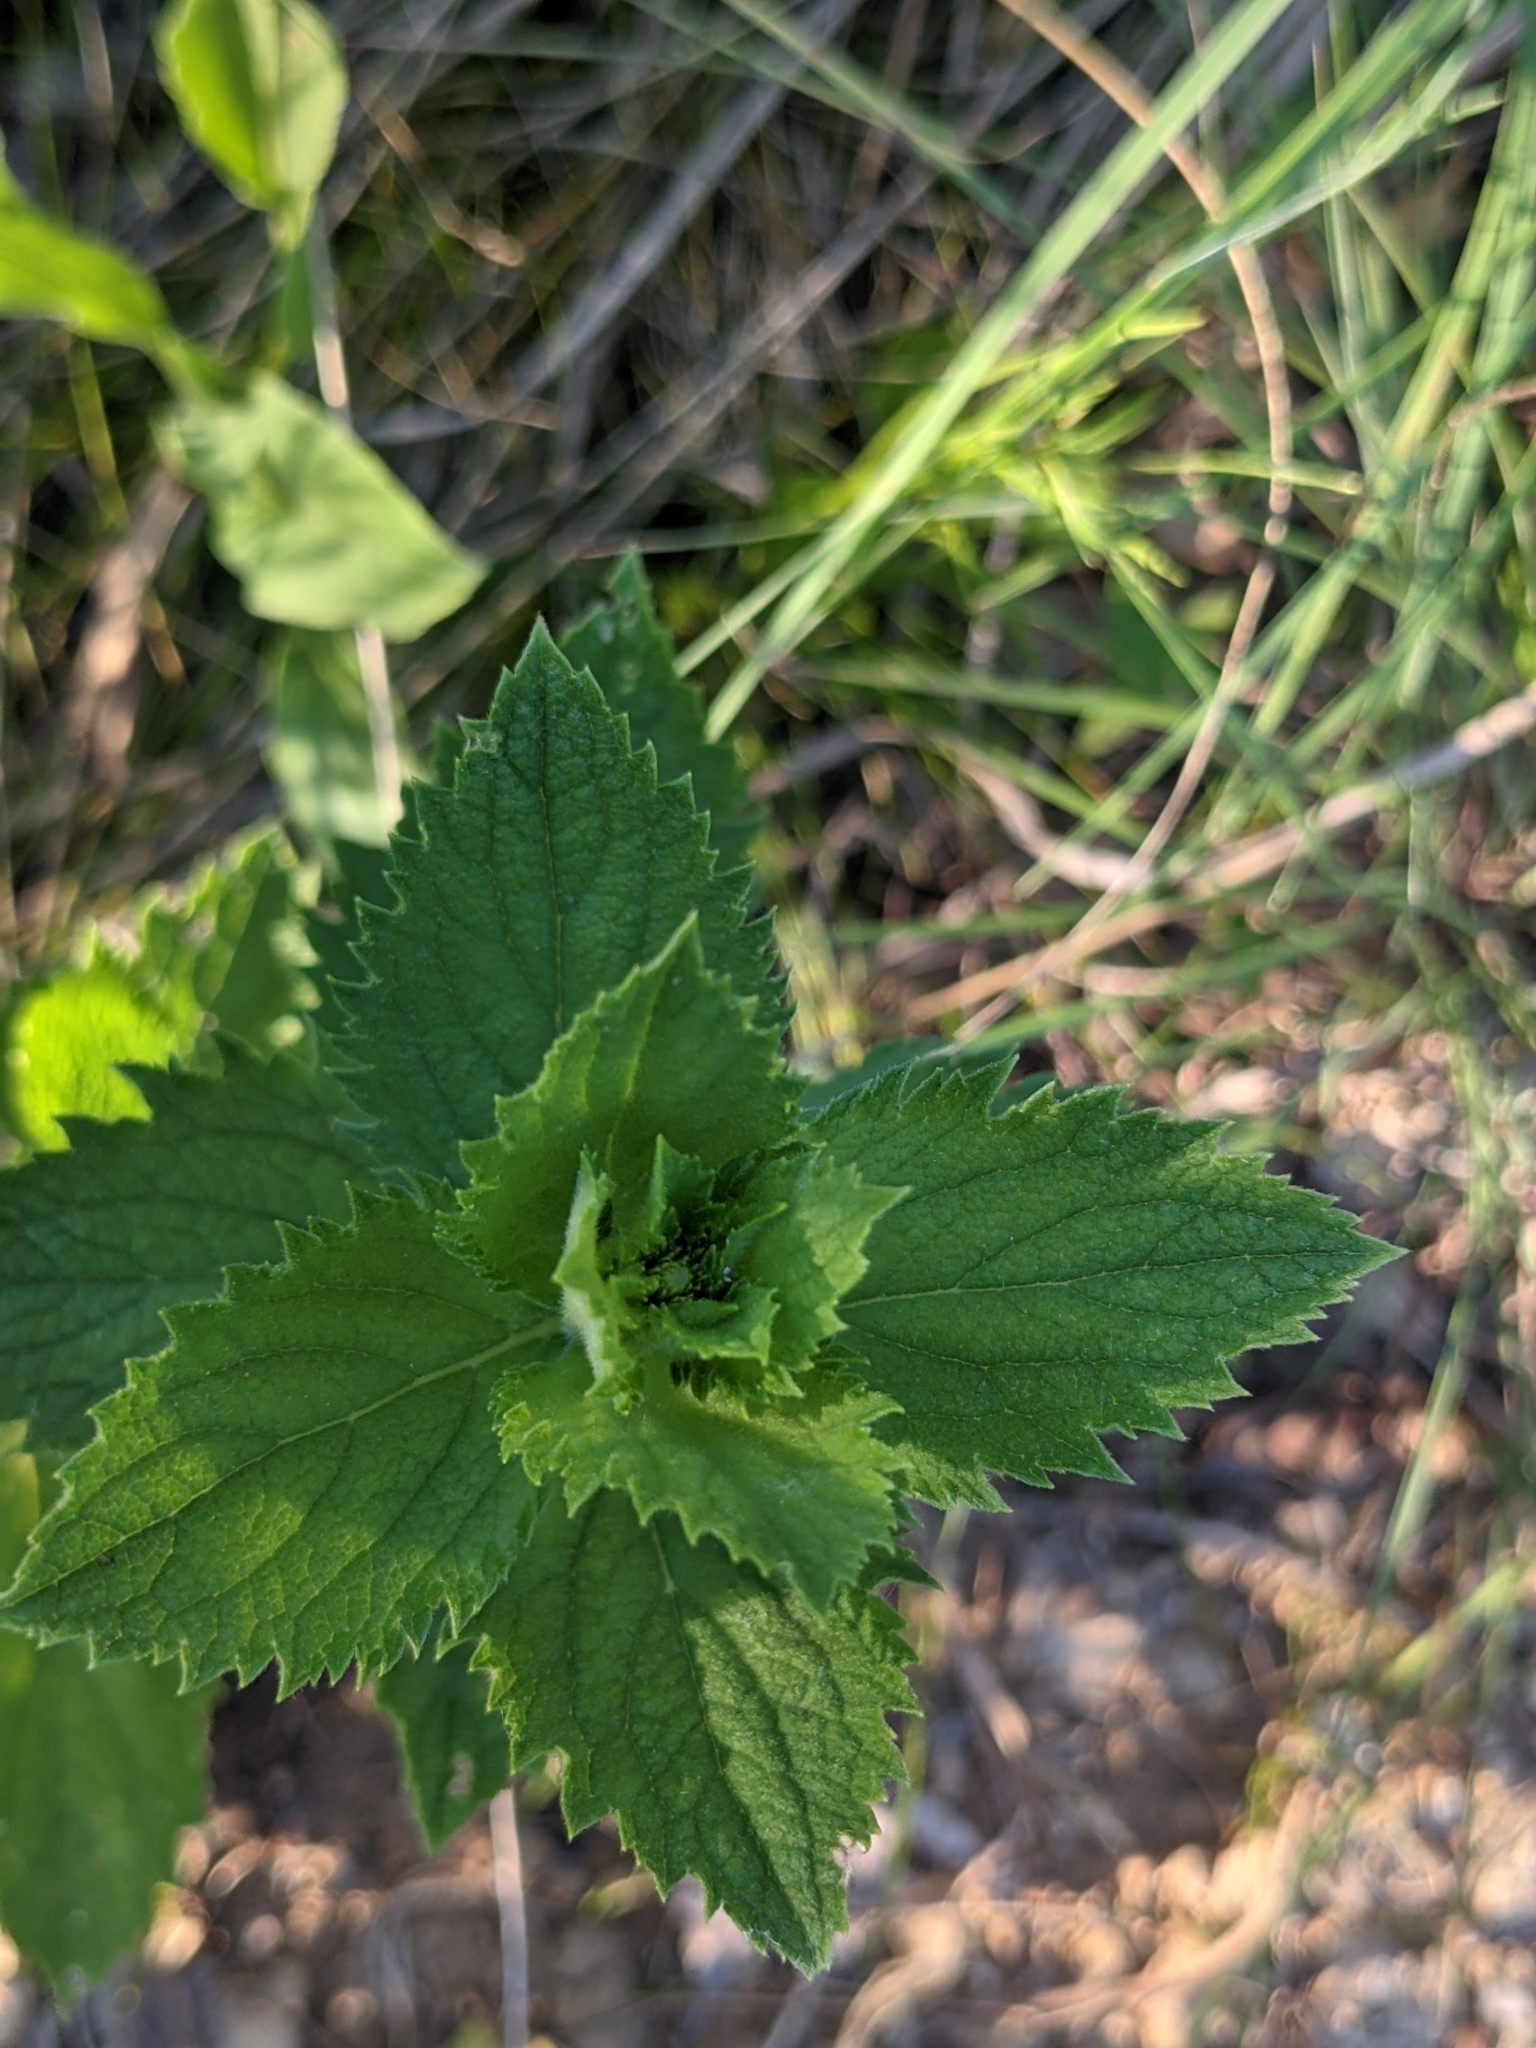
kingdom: Plantae
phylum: Tracheophyta
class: Magnoliopsida
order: Lamiales
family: Verbenaceae
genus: Verbena
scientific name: Verbena stricta
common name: Hoary vervain
